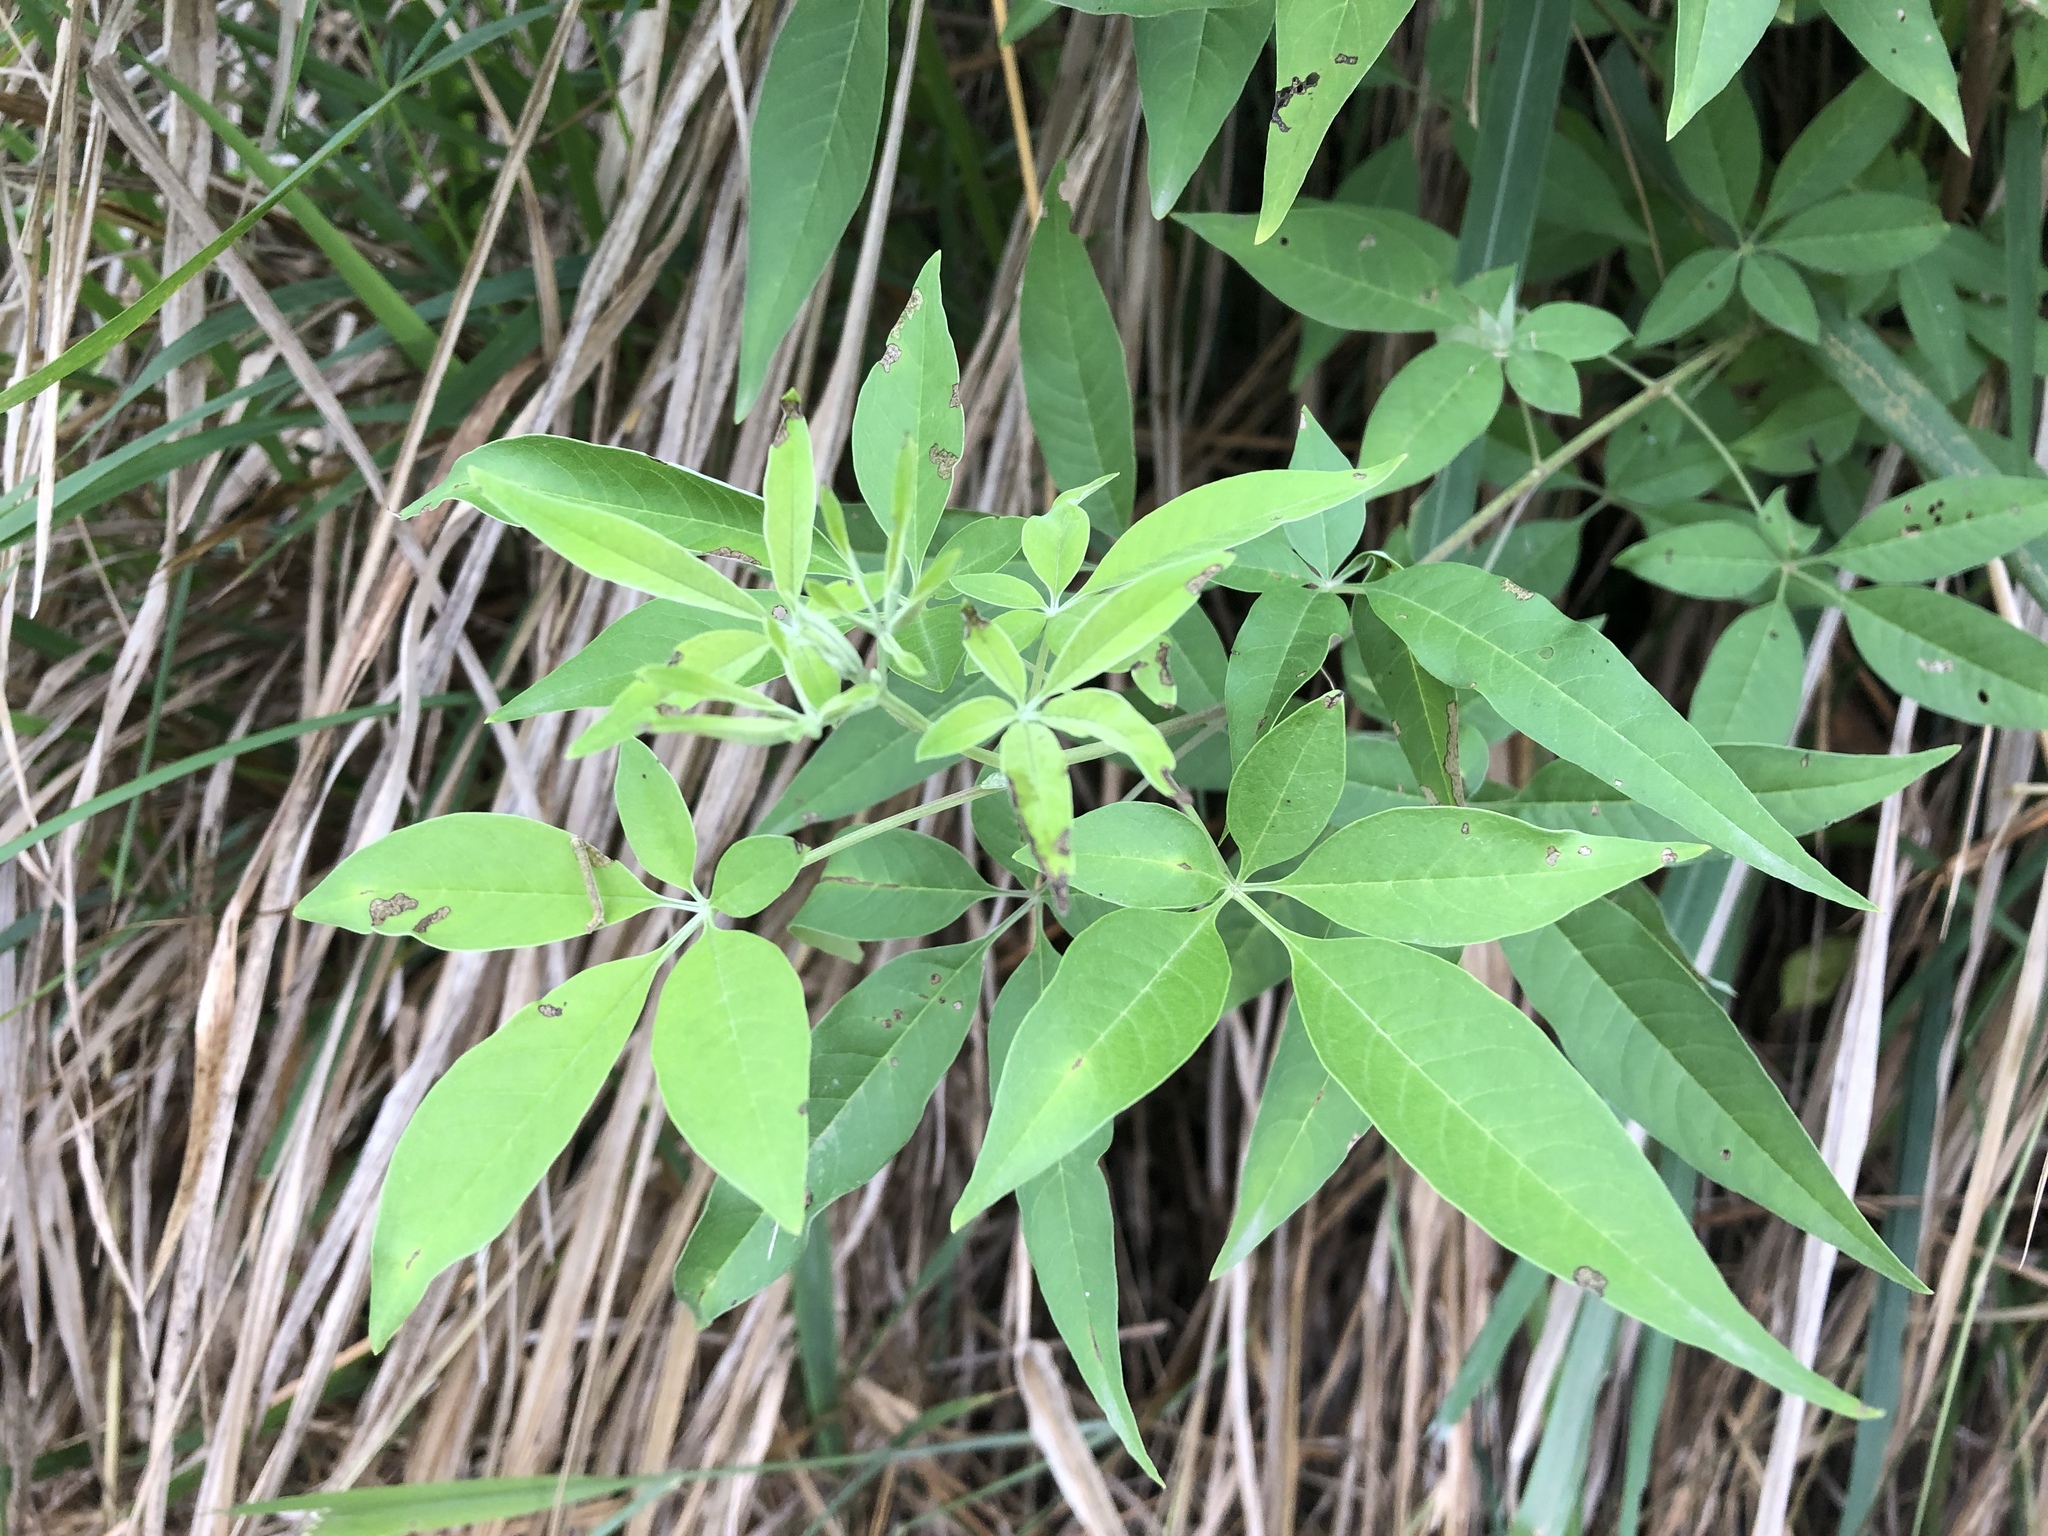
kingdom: Plantae
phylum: Tracheophyta
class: Magnoliopsida
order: Lamiales
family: Lamiaceae
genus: Vitex
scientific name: Vitex negundo
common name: Chinese chastetree
